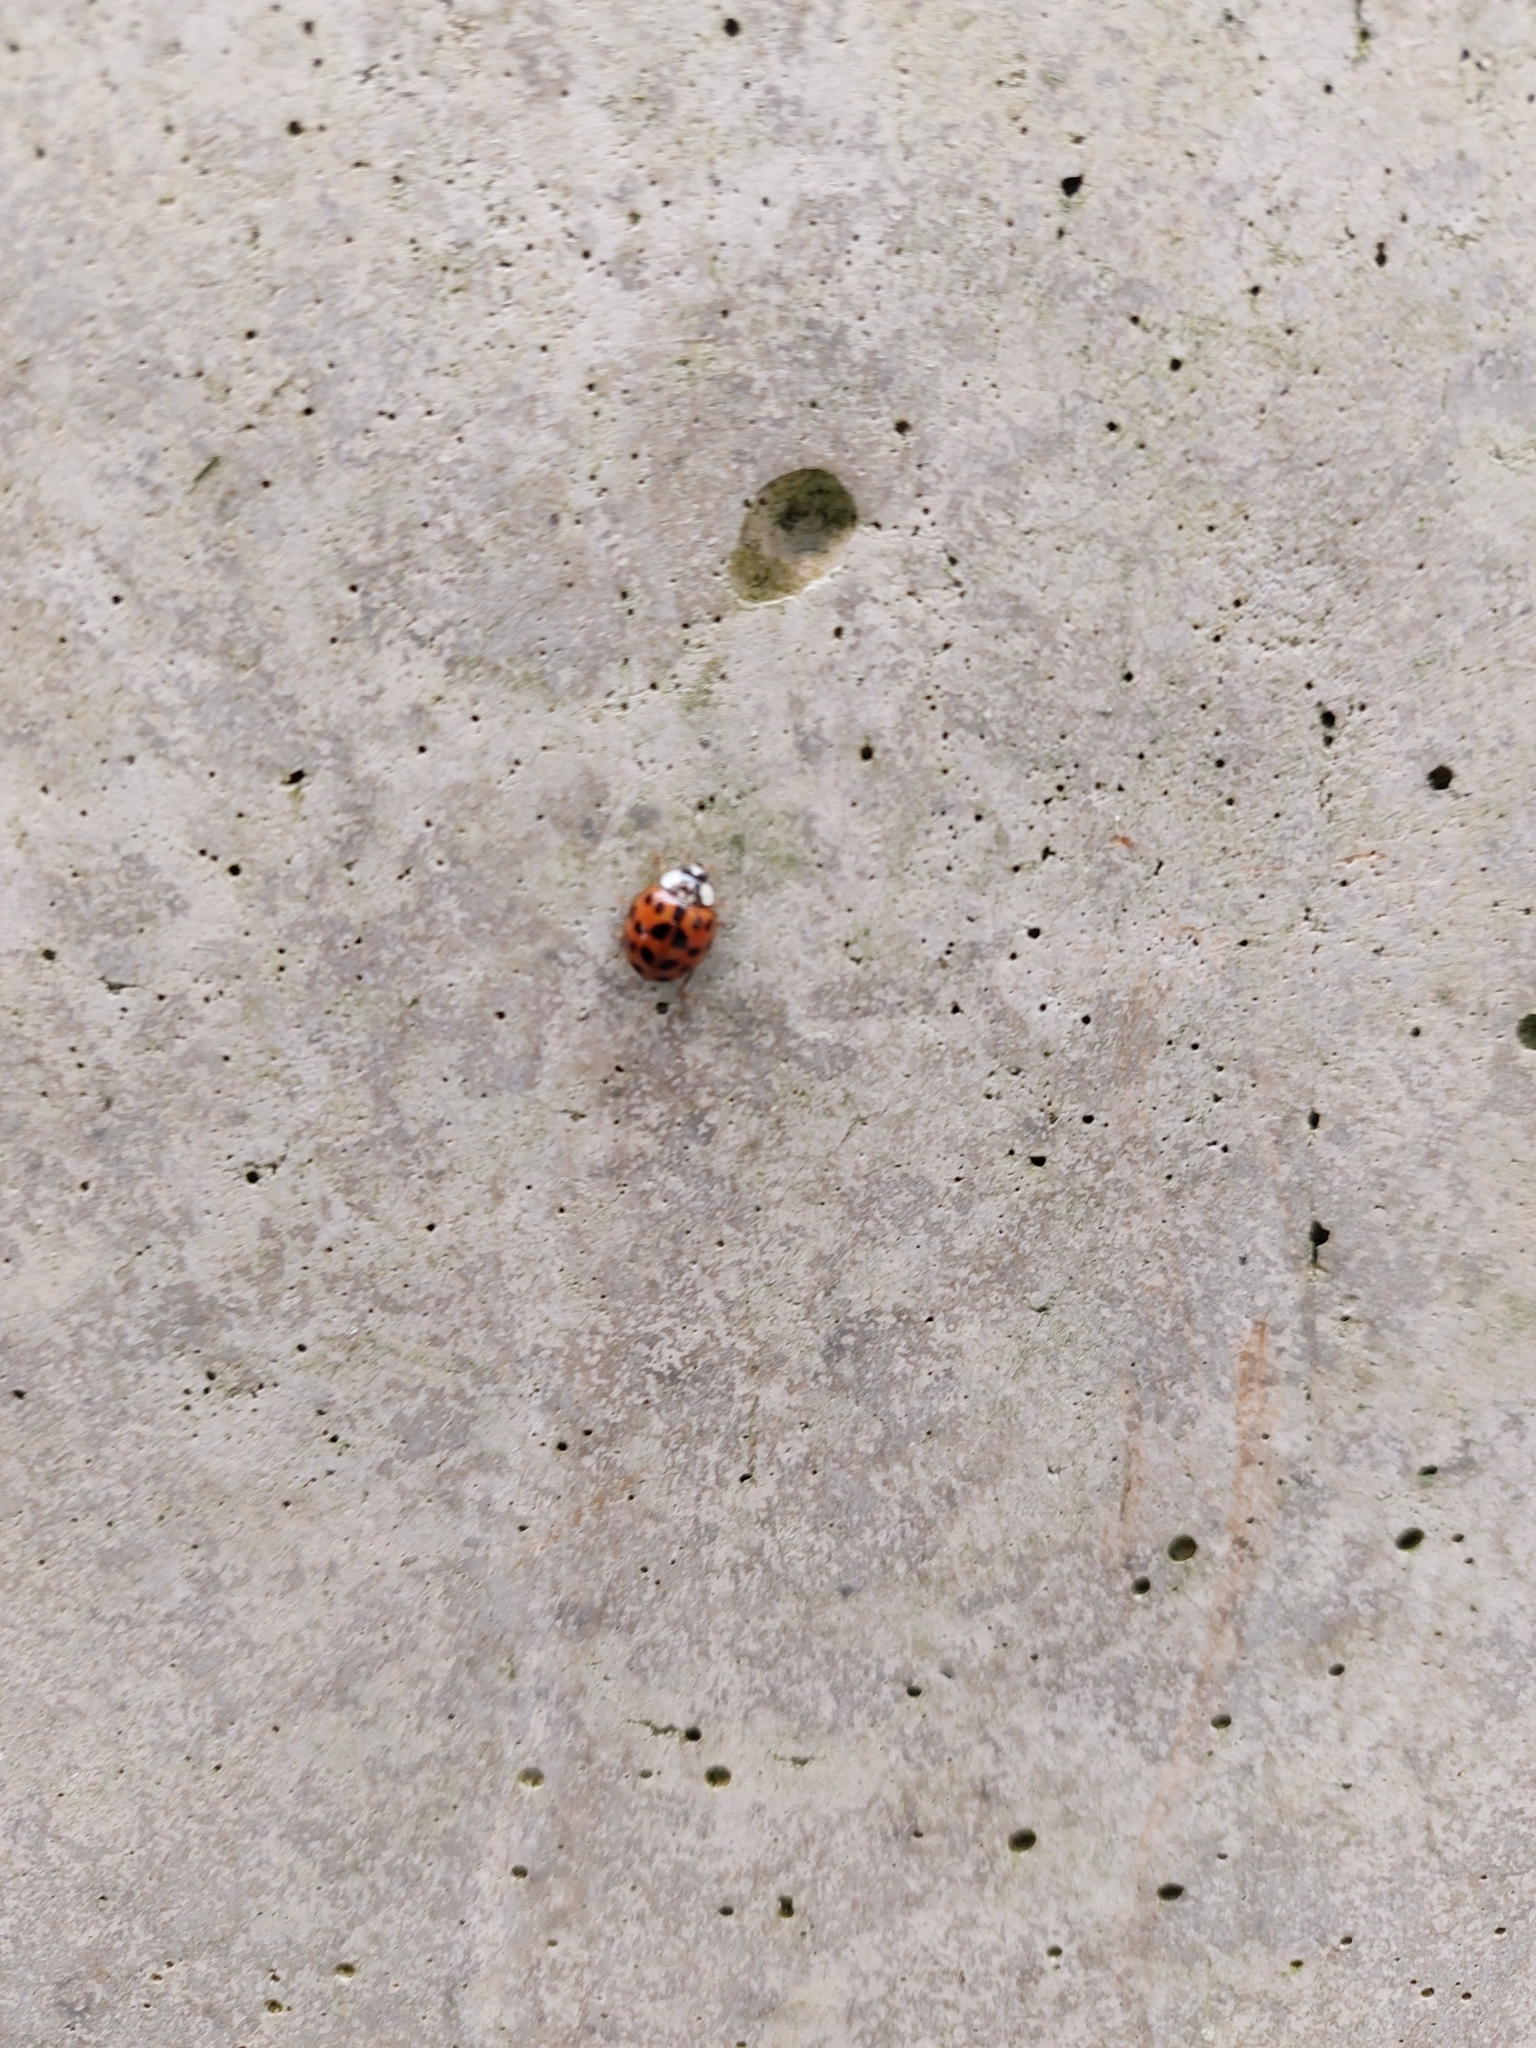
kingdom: Animalia
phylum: Arthropoda
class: Insecta
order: Coleoptera
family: Coccinellidae
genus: Harmonia
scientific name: Harmonia axyridis
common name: Harlequin ladybird
